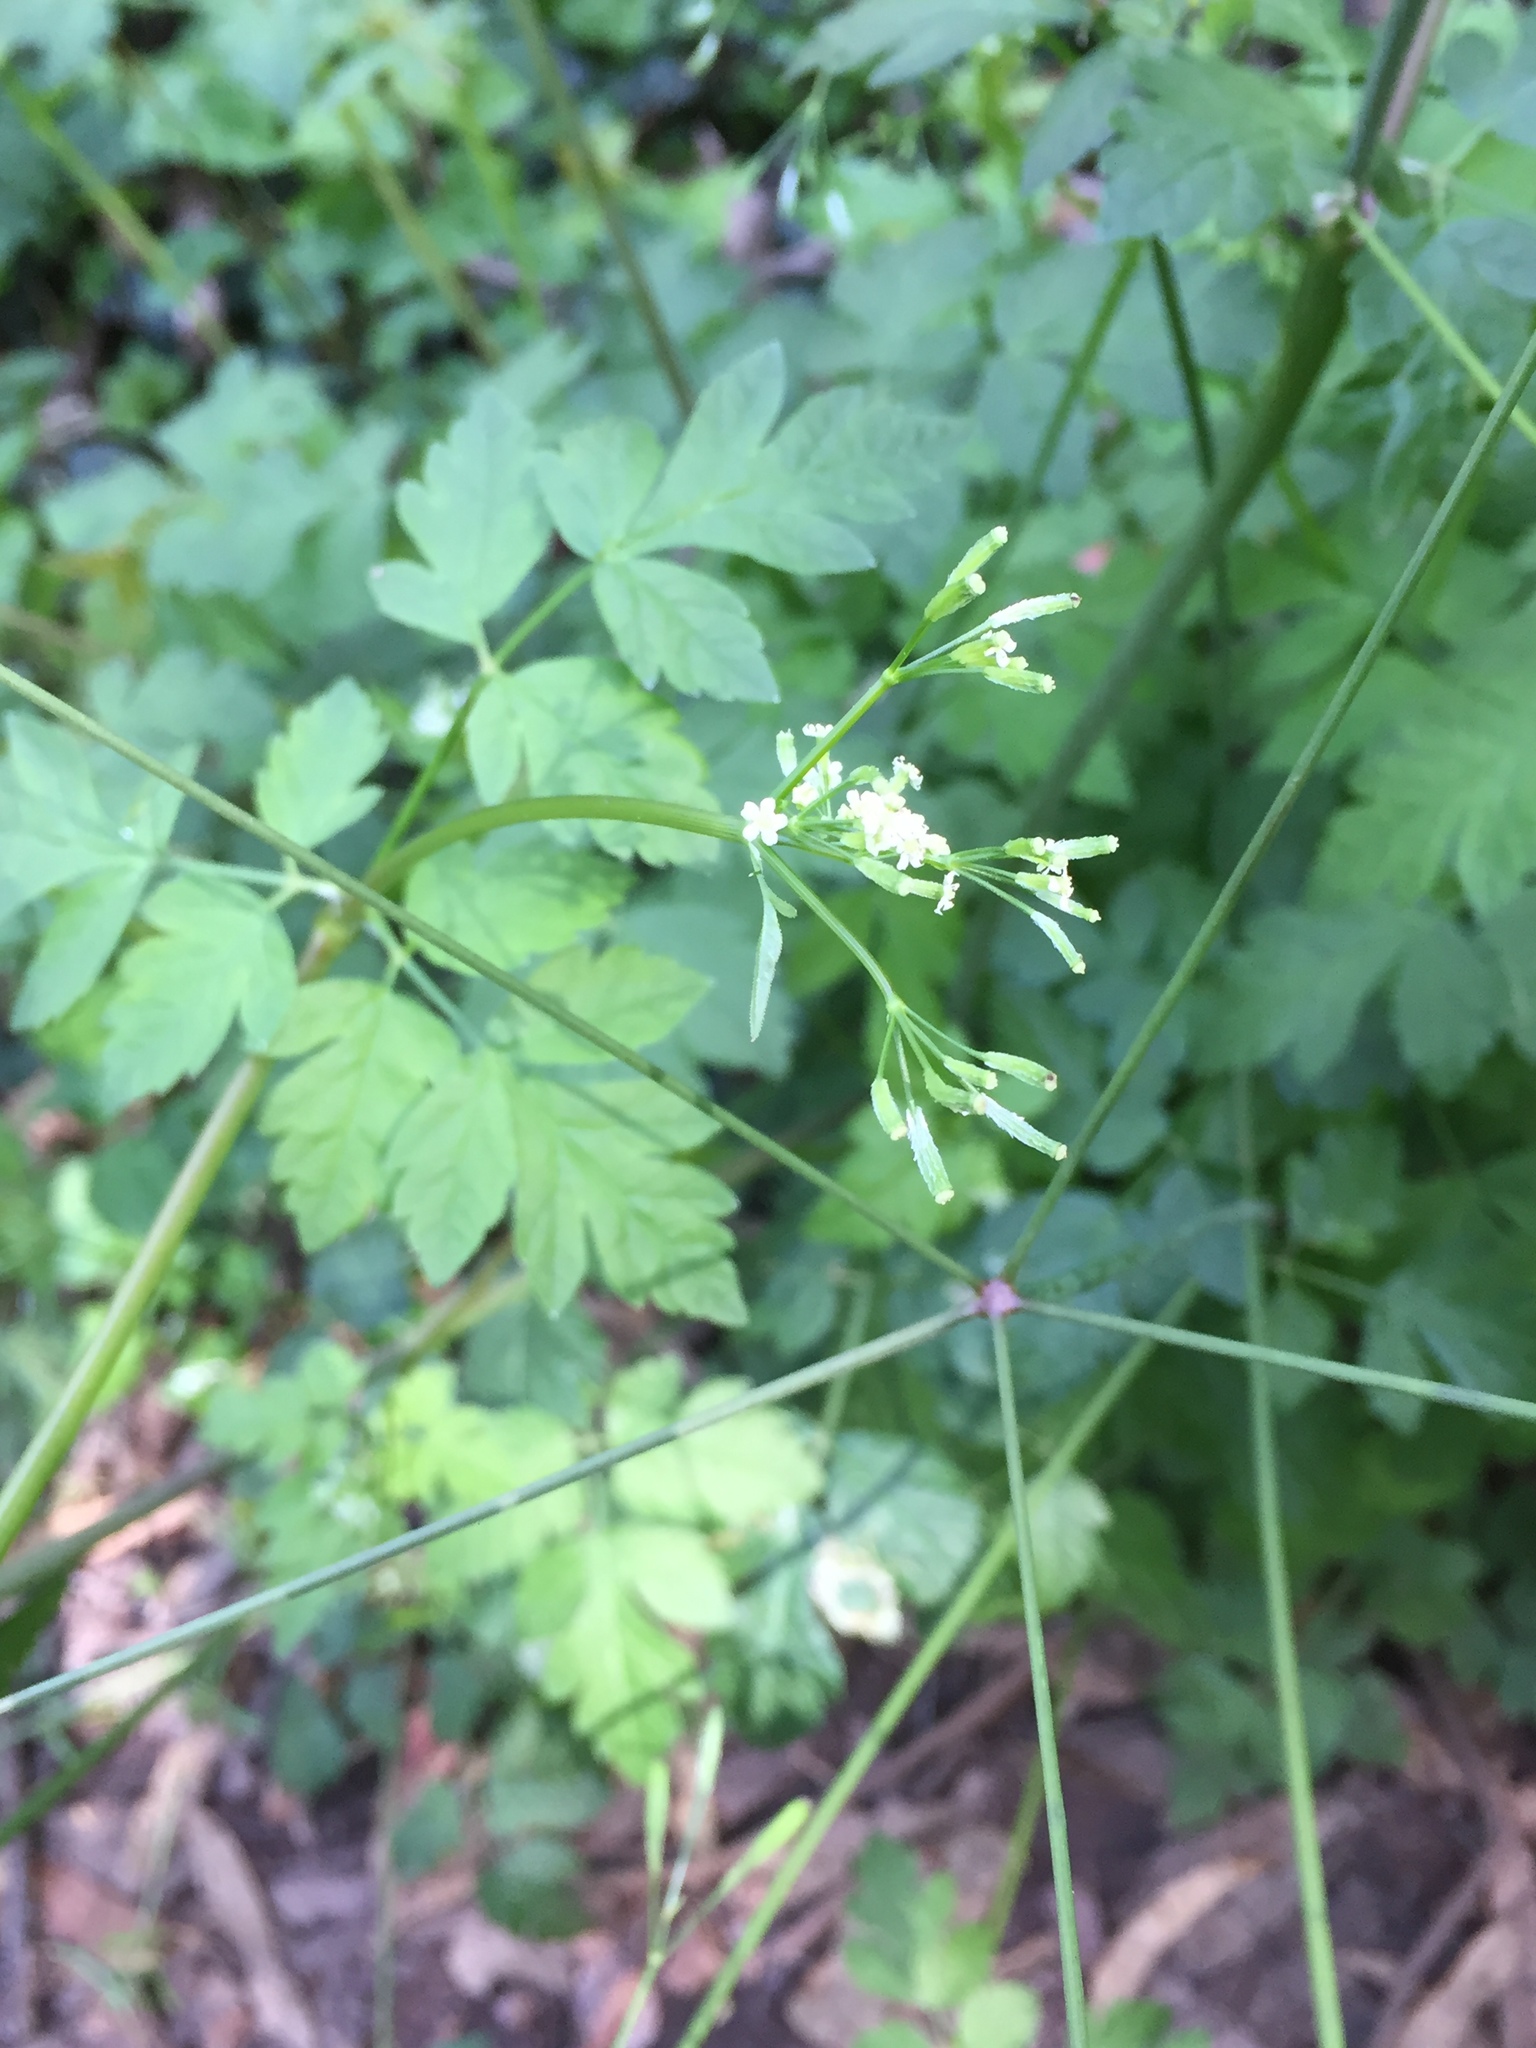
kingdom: Plantae
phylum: Tracheophyta
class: Magnoliopsida
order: Apiales
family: Apiaceae
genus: Osmorhiza
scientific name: Osmorhiza berteroi
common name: Mountain sweet cicely
